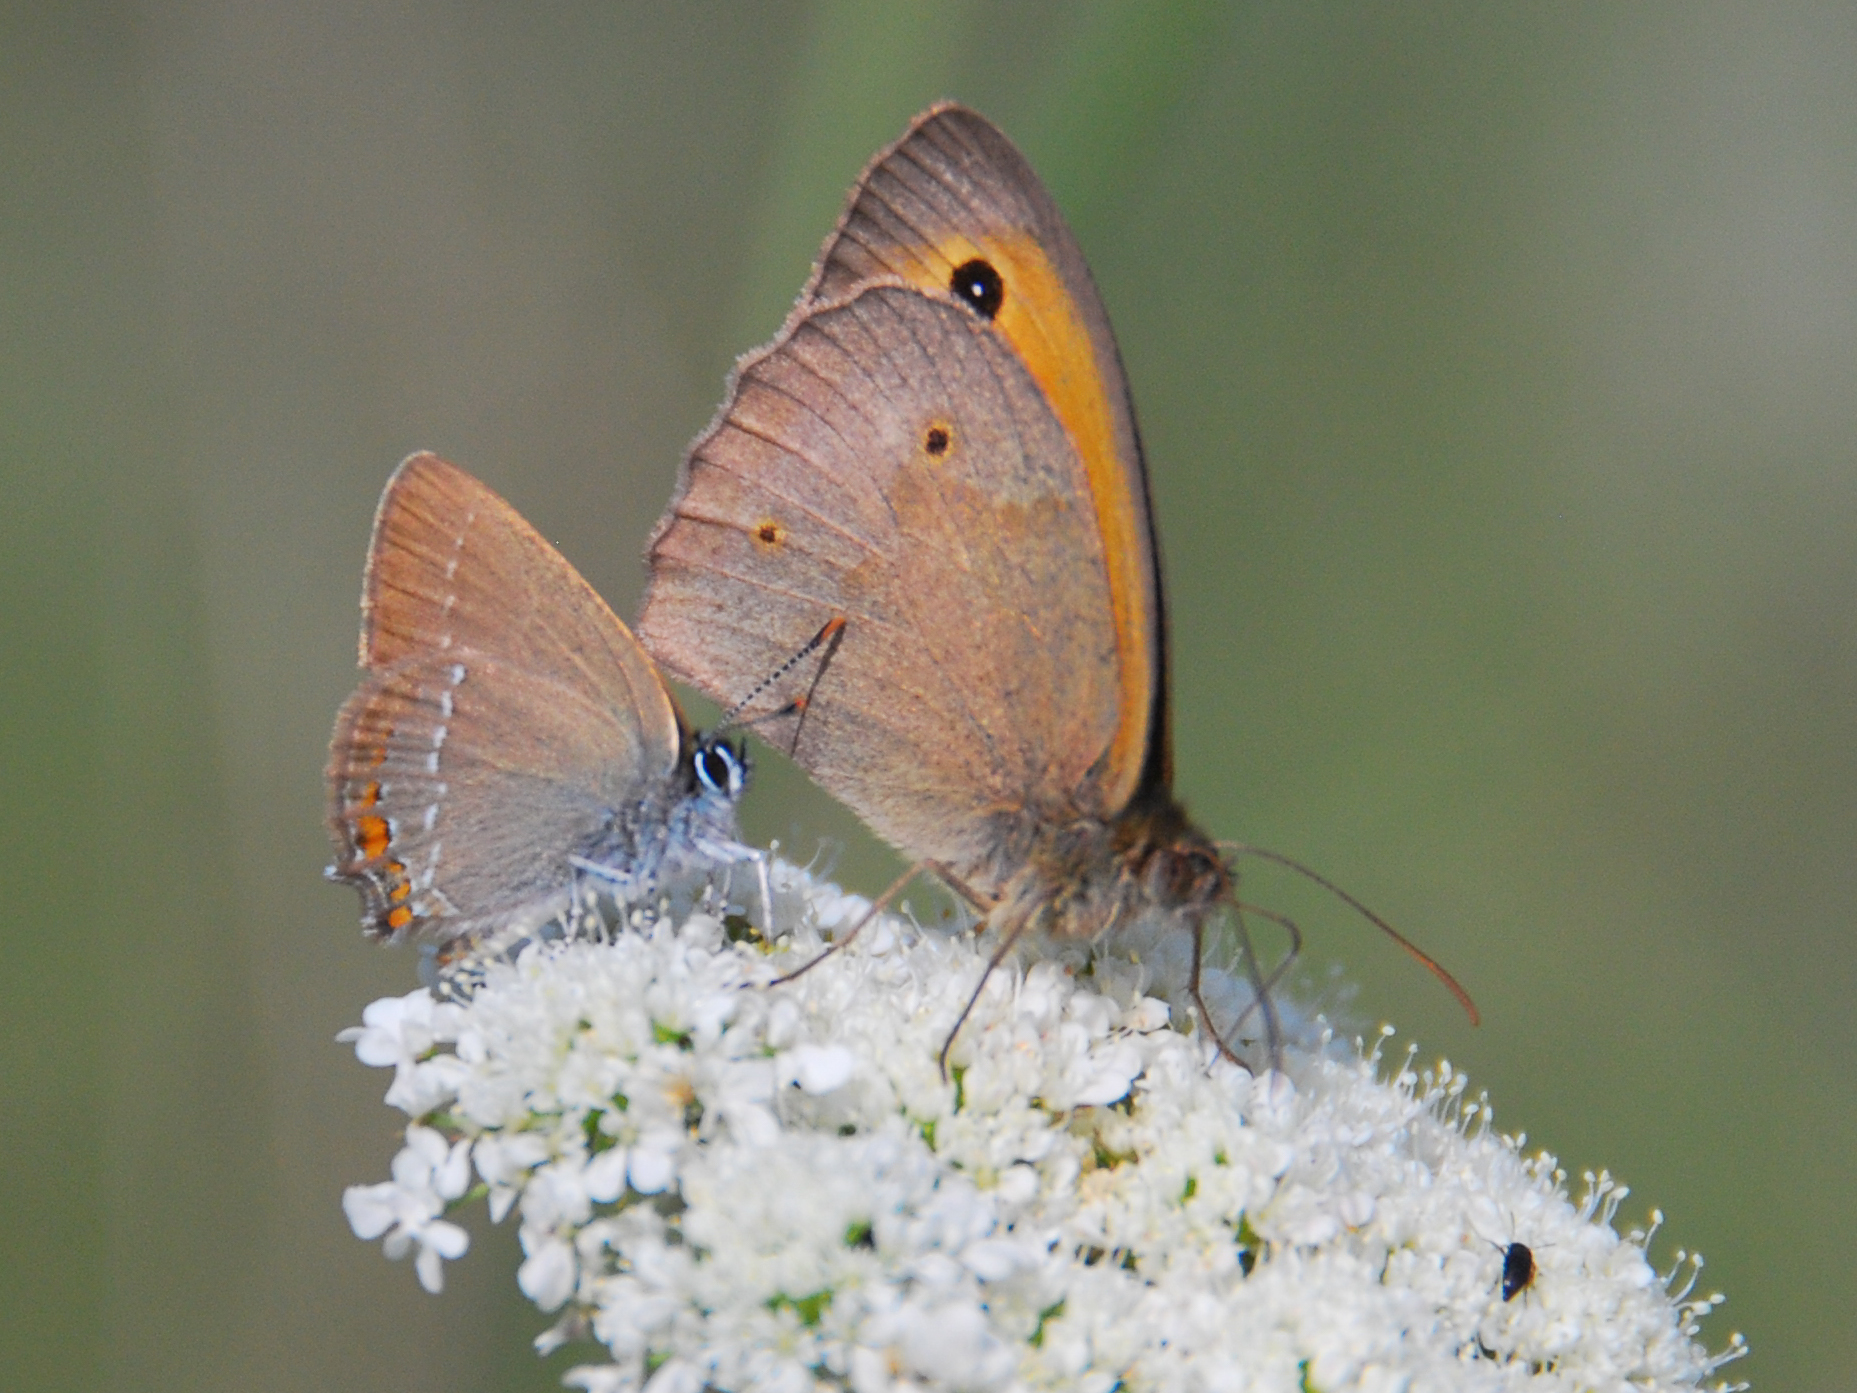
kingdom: Animalia
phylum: Arthropoda
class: Insecta
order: Lepidoptera
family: Lycaenidae
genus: Strymon
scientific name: Strymon acaciae
